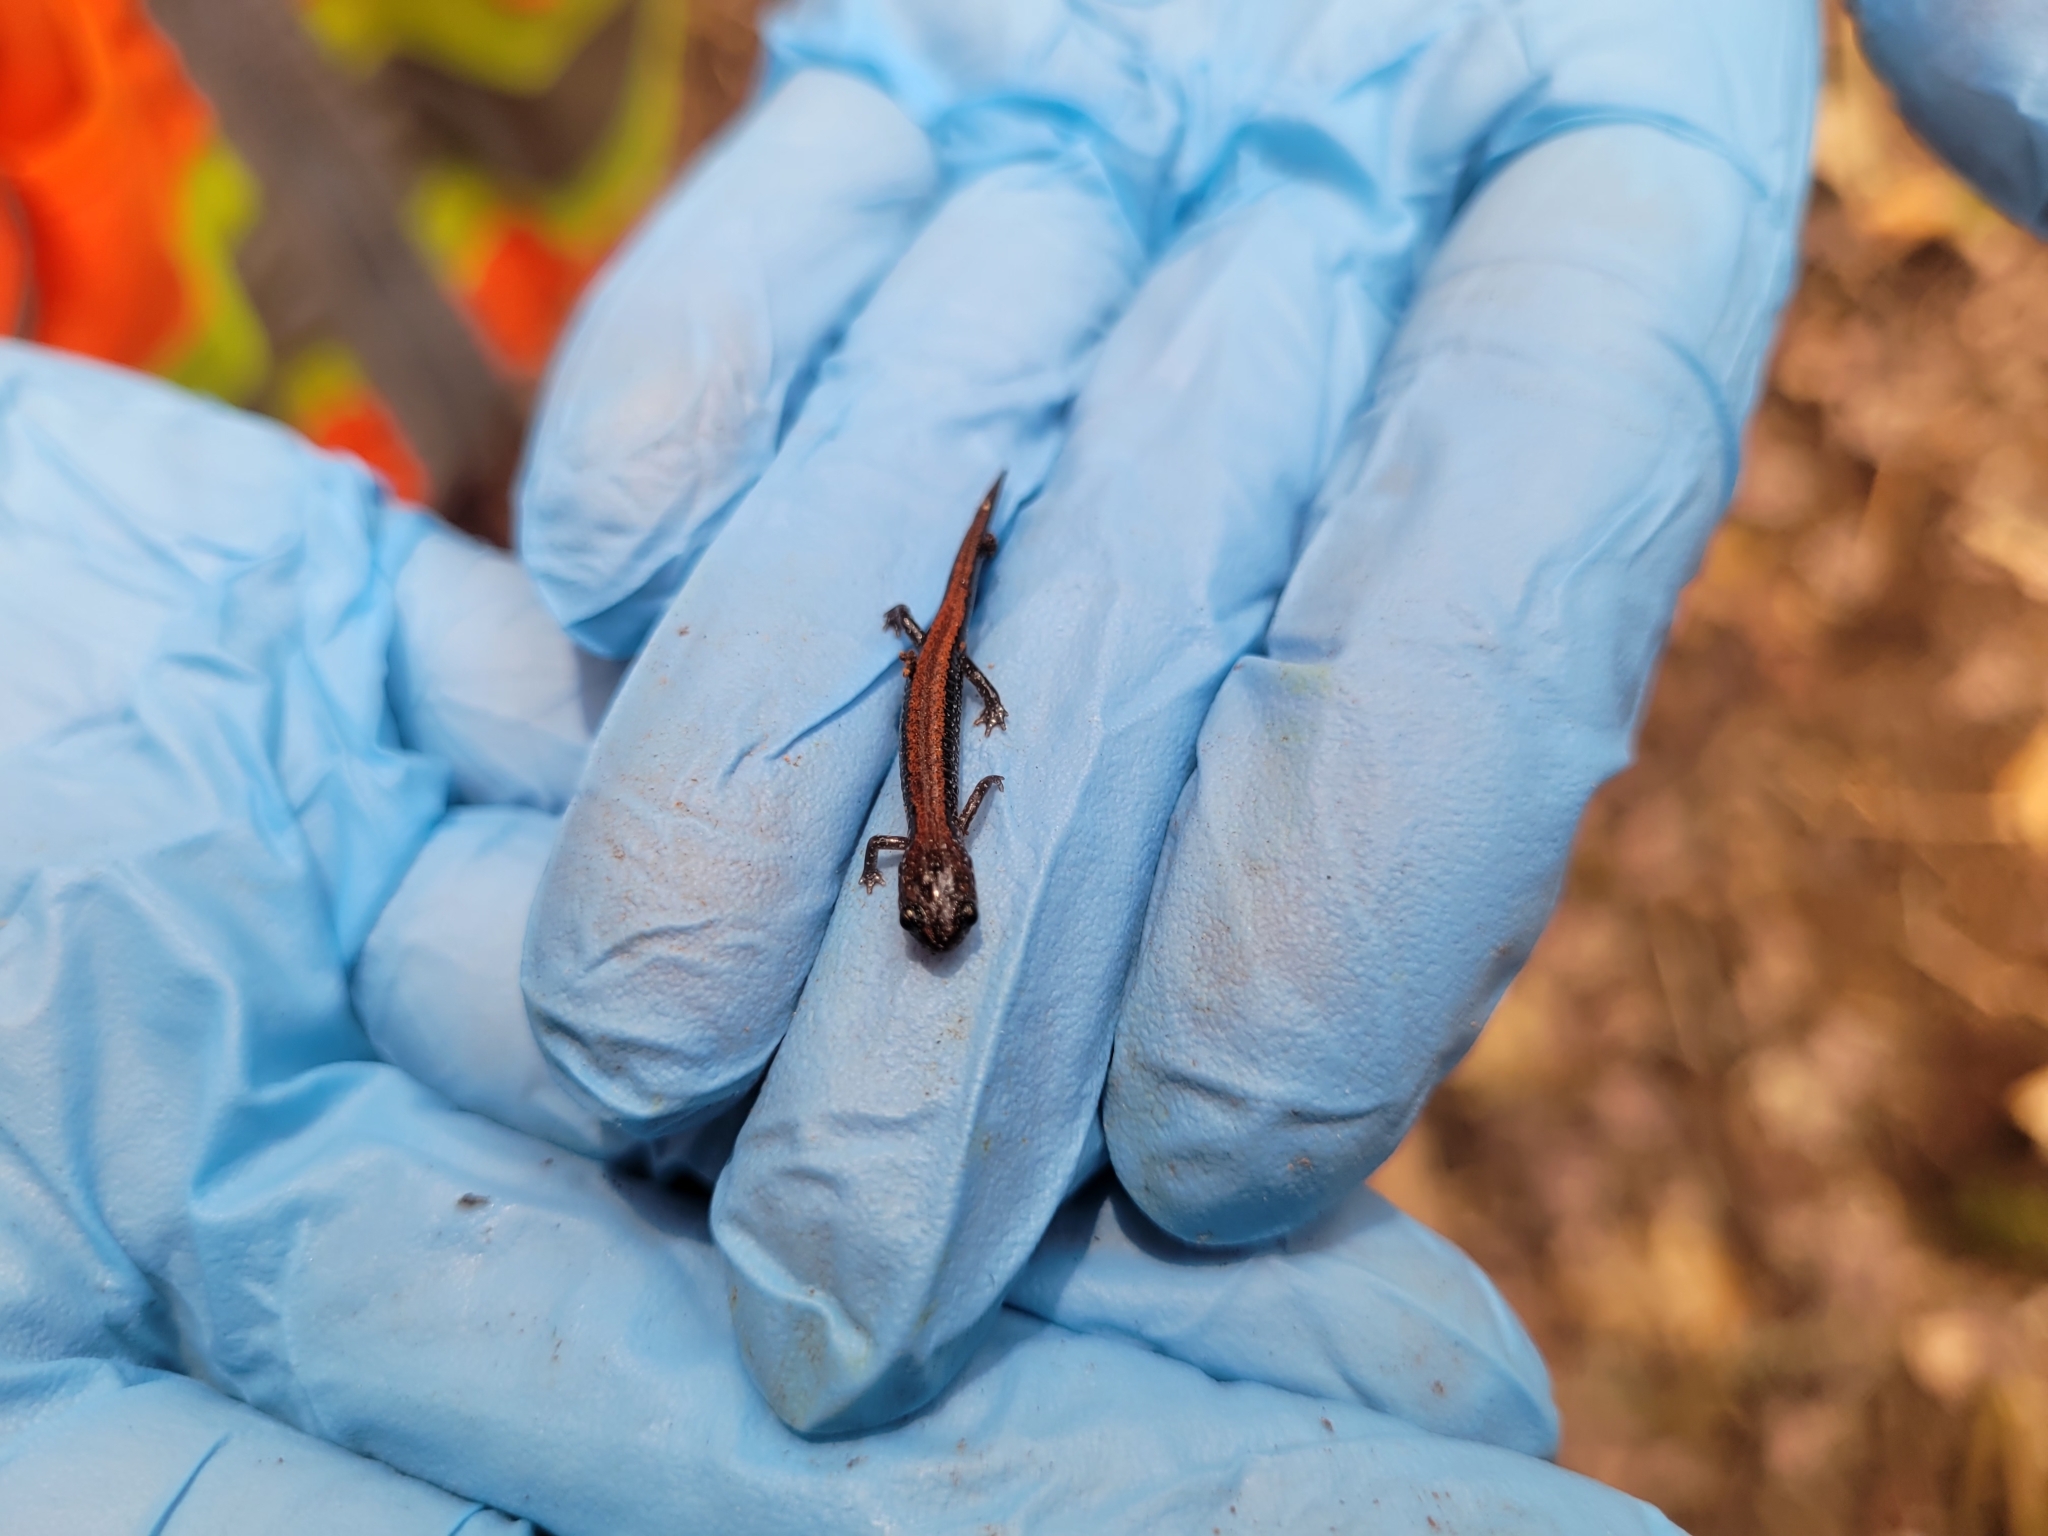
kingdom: Animalia
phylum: Chordata
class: Amphibia
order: Caudata
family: Plethodontidae
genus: Plethodon
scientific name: Plethodon cinereus
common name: Redback salamander
